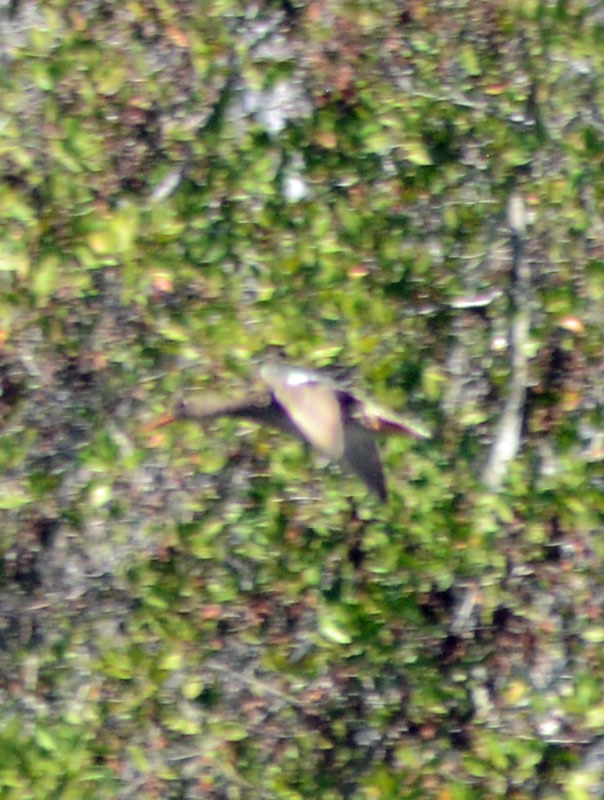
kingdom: Animalia
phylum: Chordata
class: Aves
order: Anseriformes
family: Anatidae
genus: Anas
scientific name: Anas diazi
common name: Mexican duck
